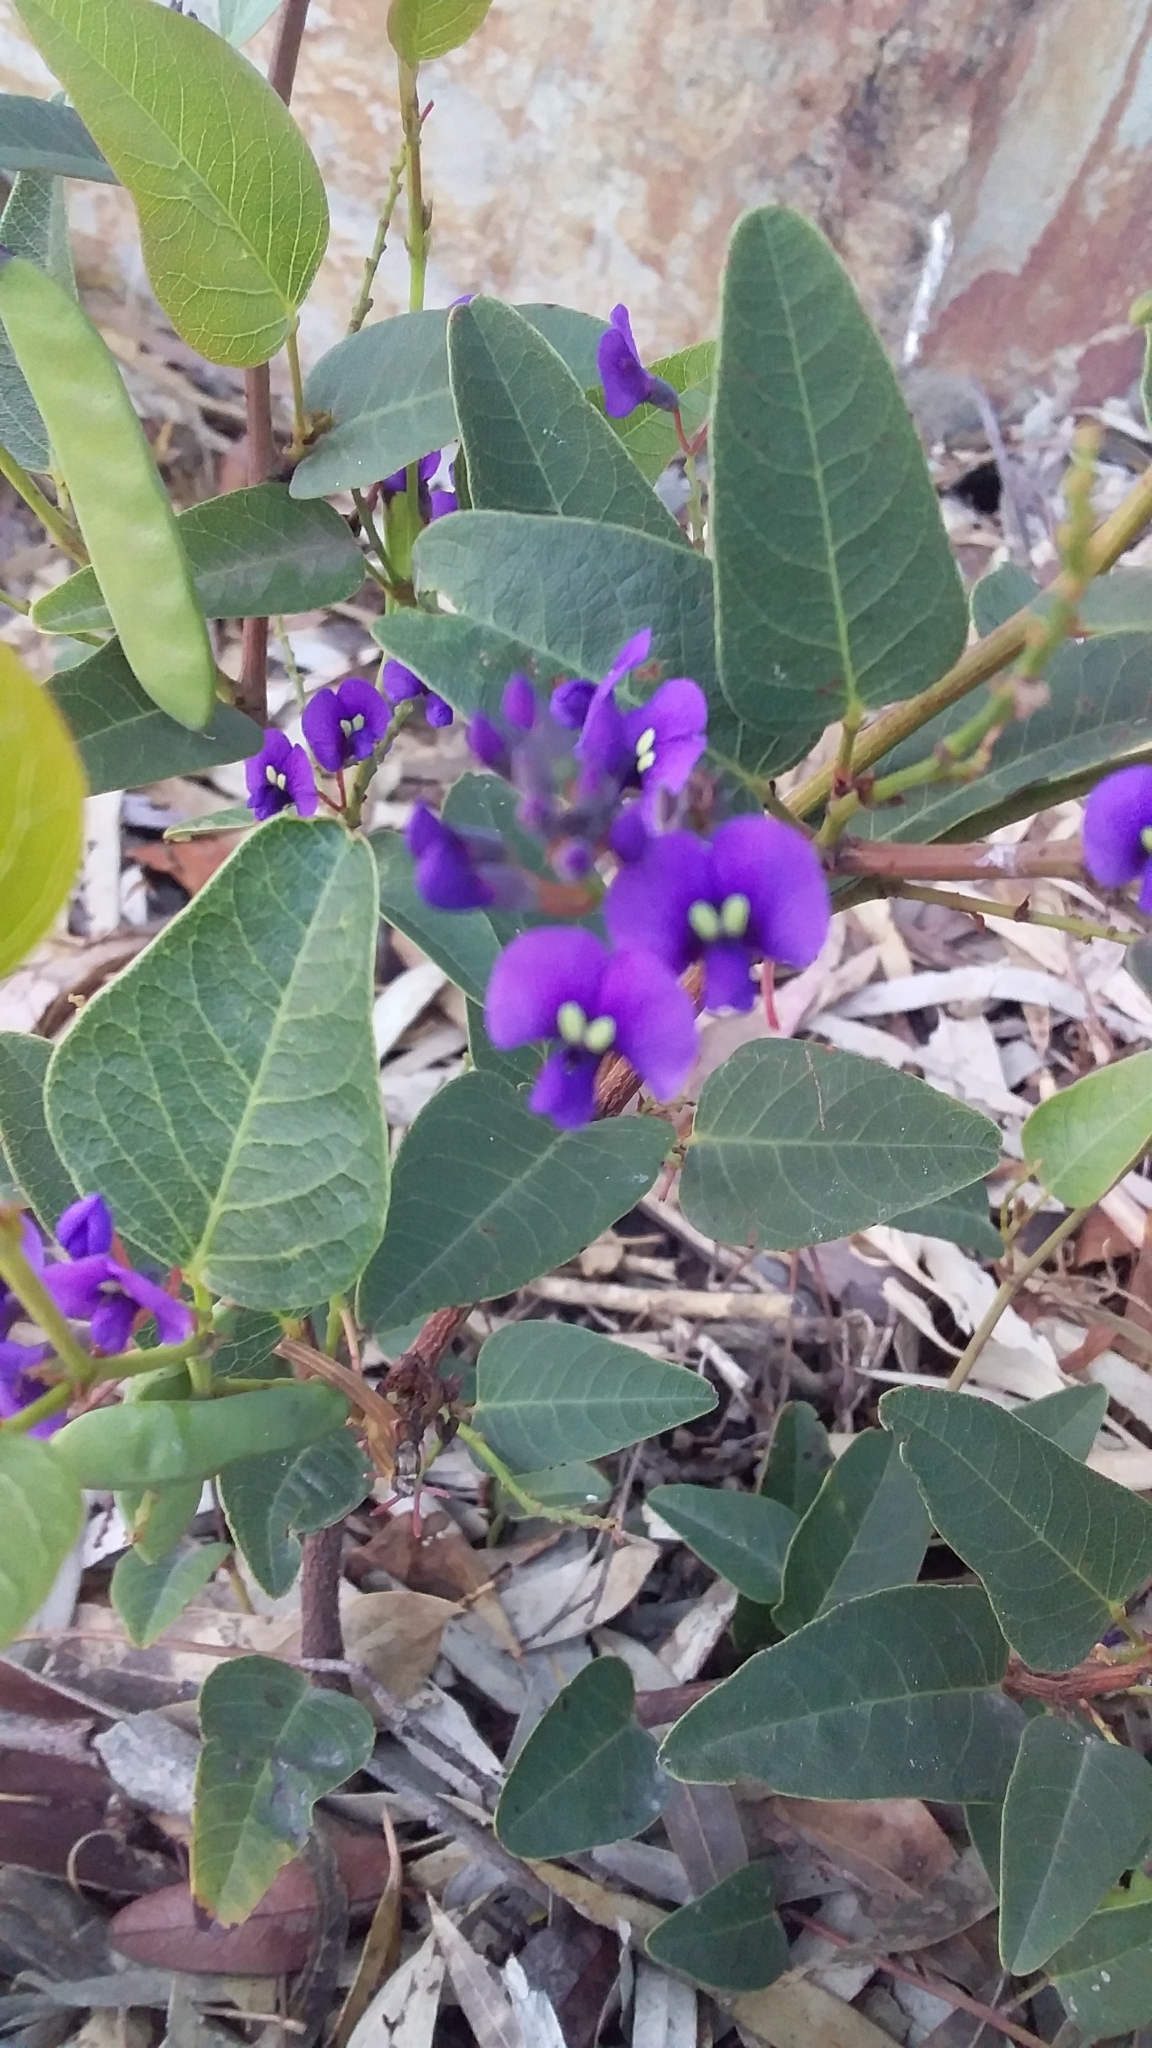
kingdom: Plantae
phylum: Tracheophyta
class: Magnoliopsida
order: Fabales
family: Fabaceae
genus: Hardenbergia
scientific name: Hardenbergia violacea
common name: Coral-pea
